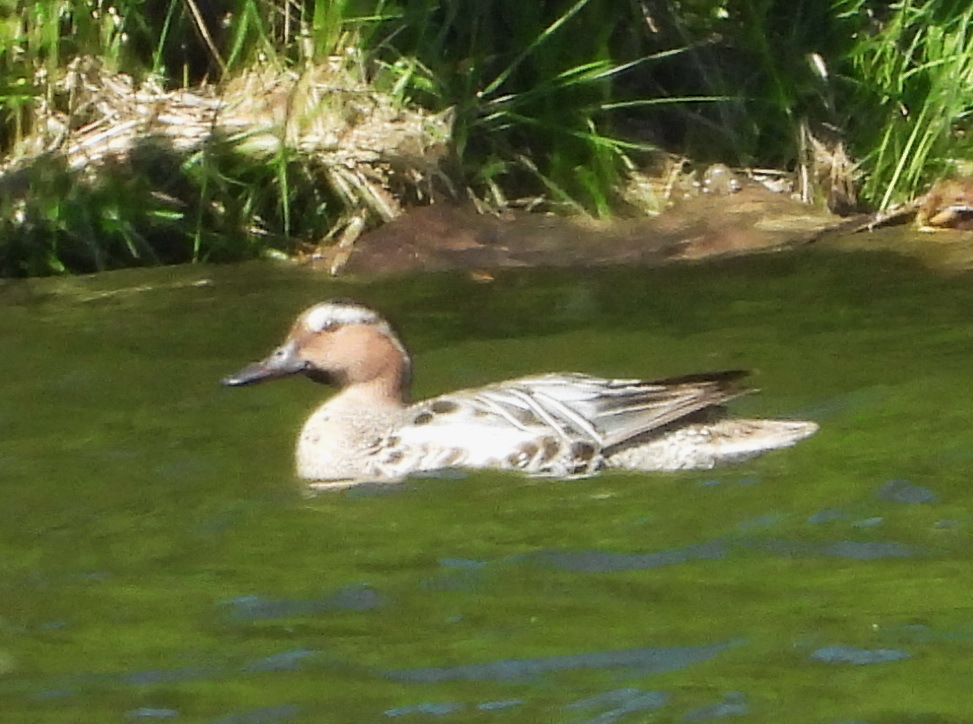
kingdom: Animalia
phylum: Chordata
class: Aves
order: Anseriformes
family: Anatidae
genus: Spatula
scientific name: Spatula querquedula
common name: Garganey
